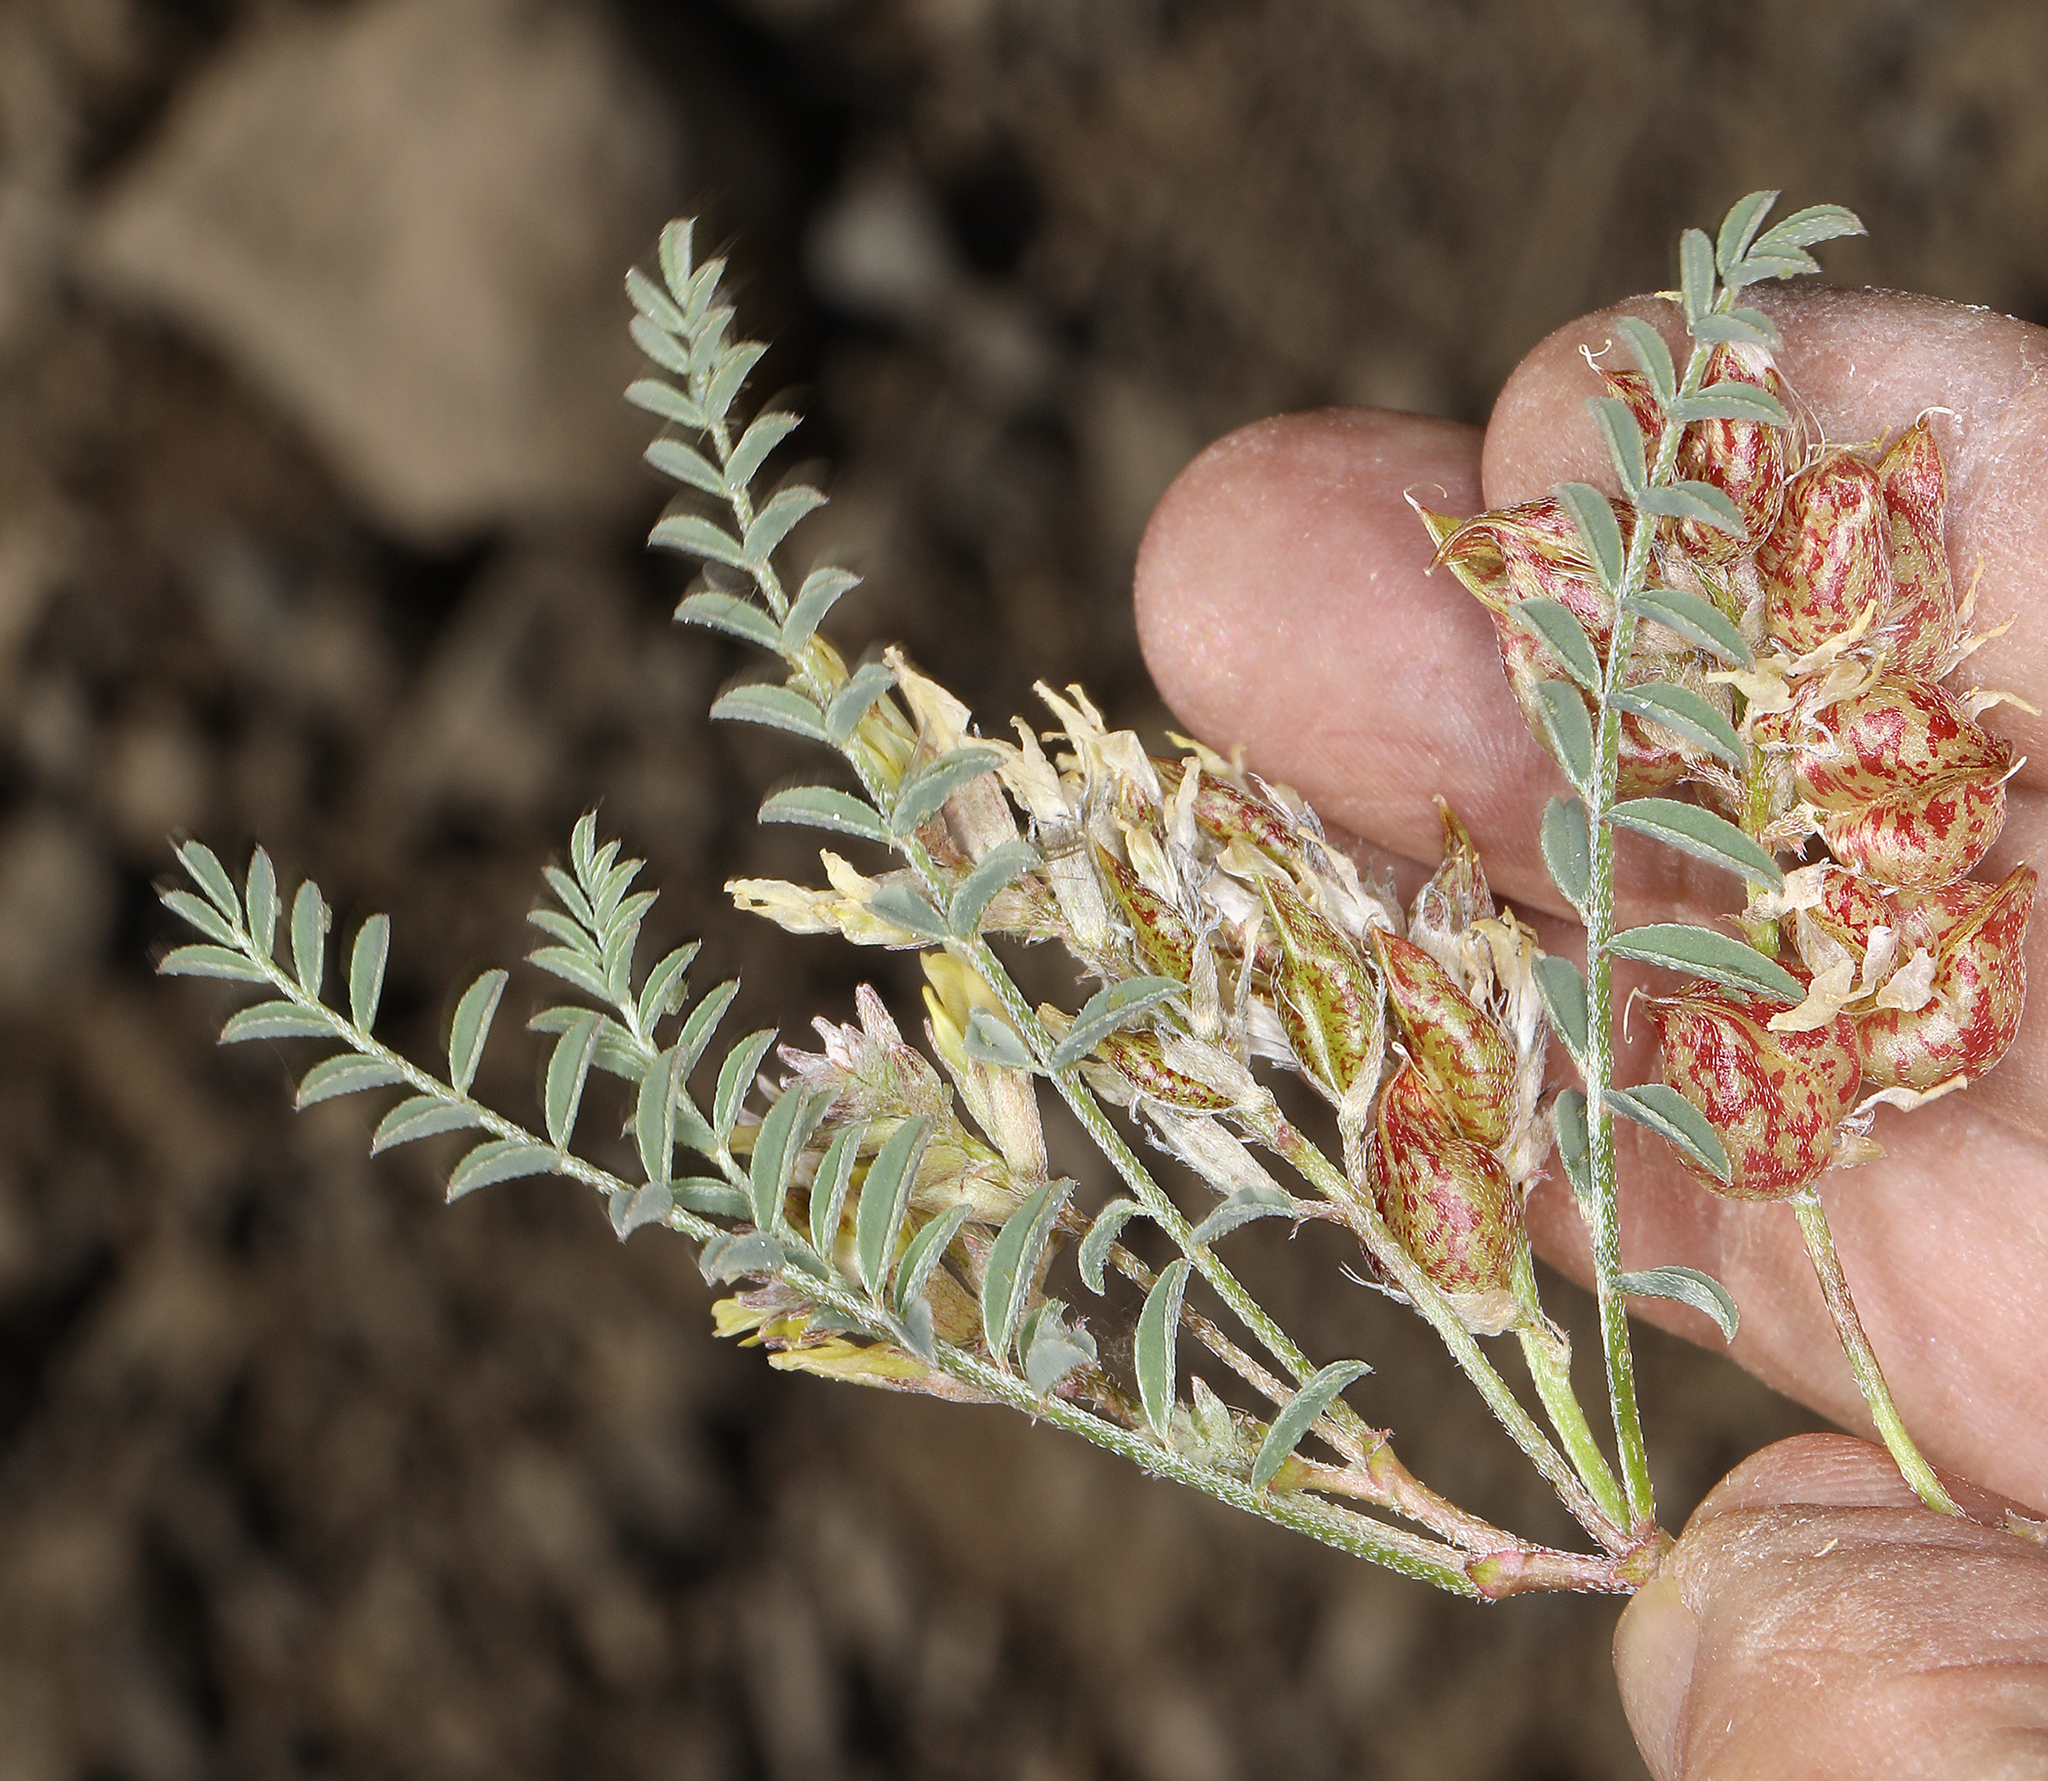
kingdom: Plantae
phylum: Tracheophyta
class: Magnoliopsida
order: Fabales
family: Fabaceae
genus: Astragalus
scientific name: Astragalus lentiginosus
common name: Freckled milkvetch
